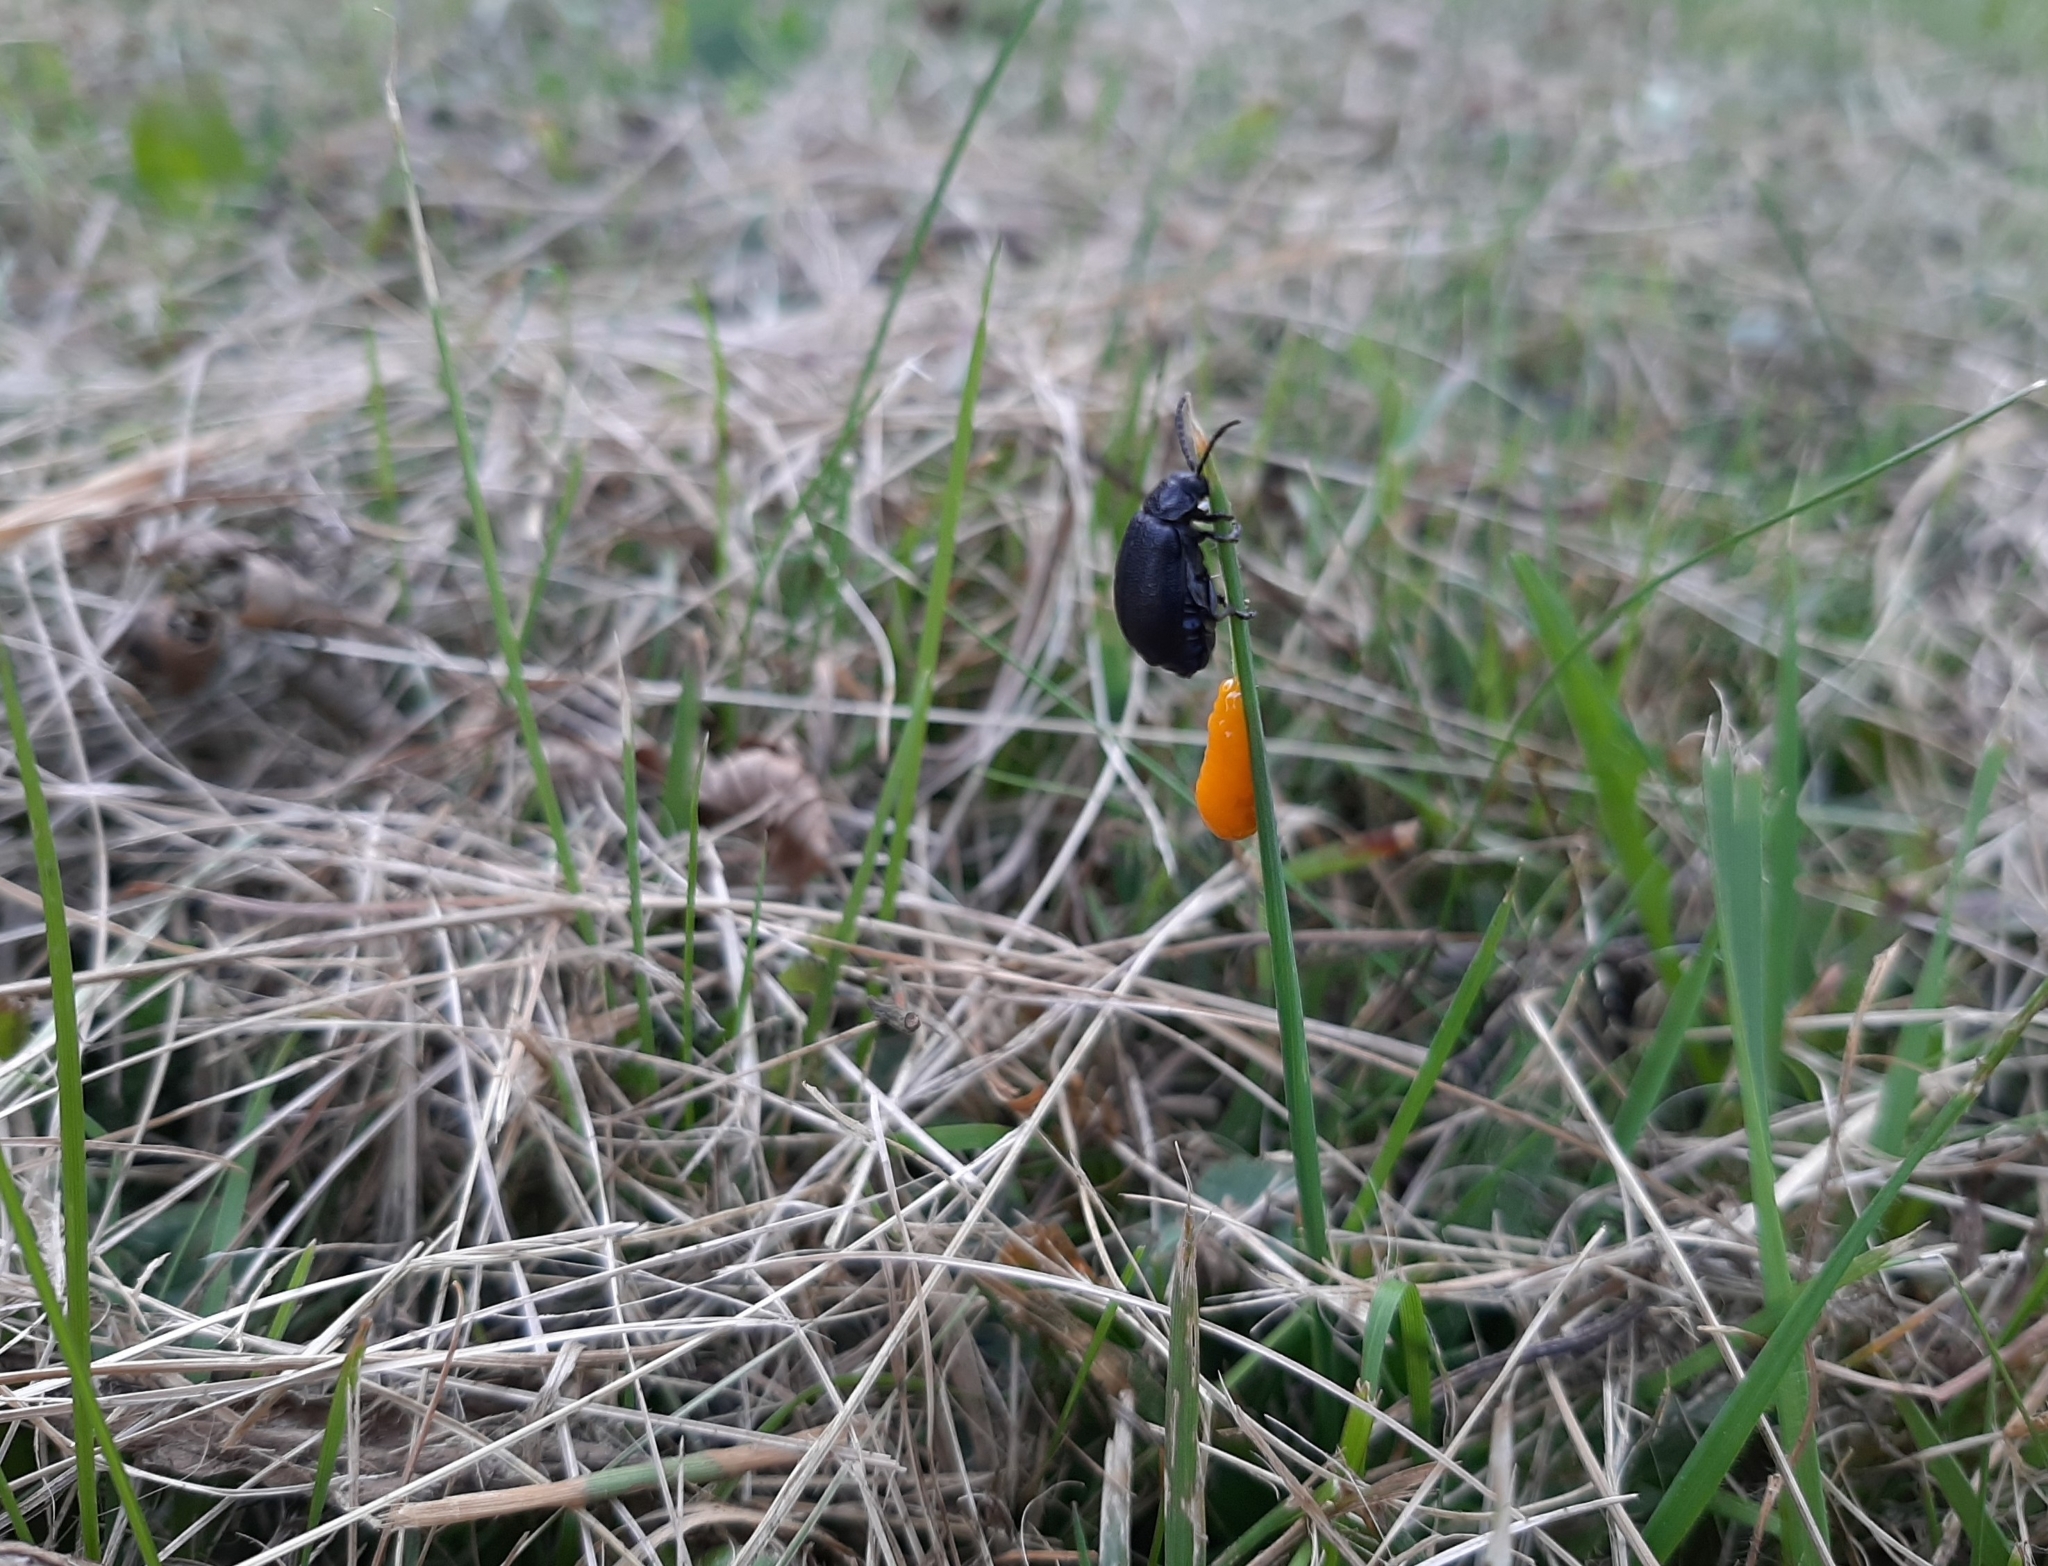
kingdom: Animalia
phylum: Arthropoda
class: Insecta
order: Coleoptera
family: Chrysomelidae
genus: Galeruca
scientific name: Galeruca tanaceti
